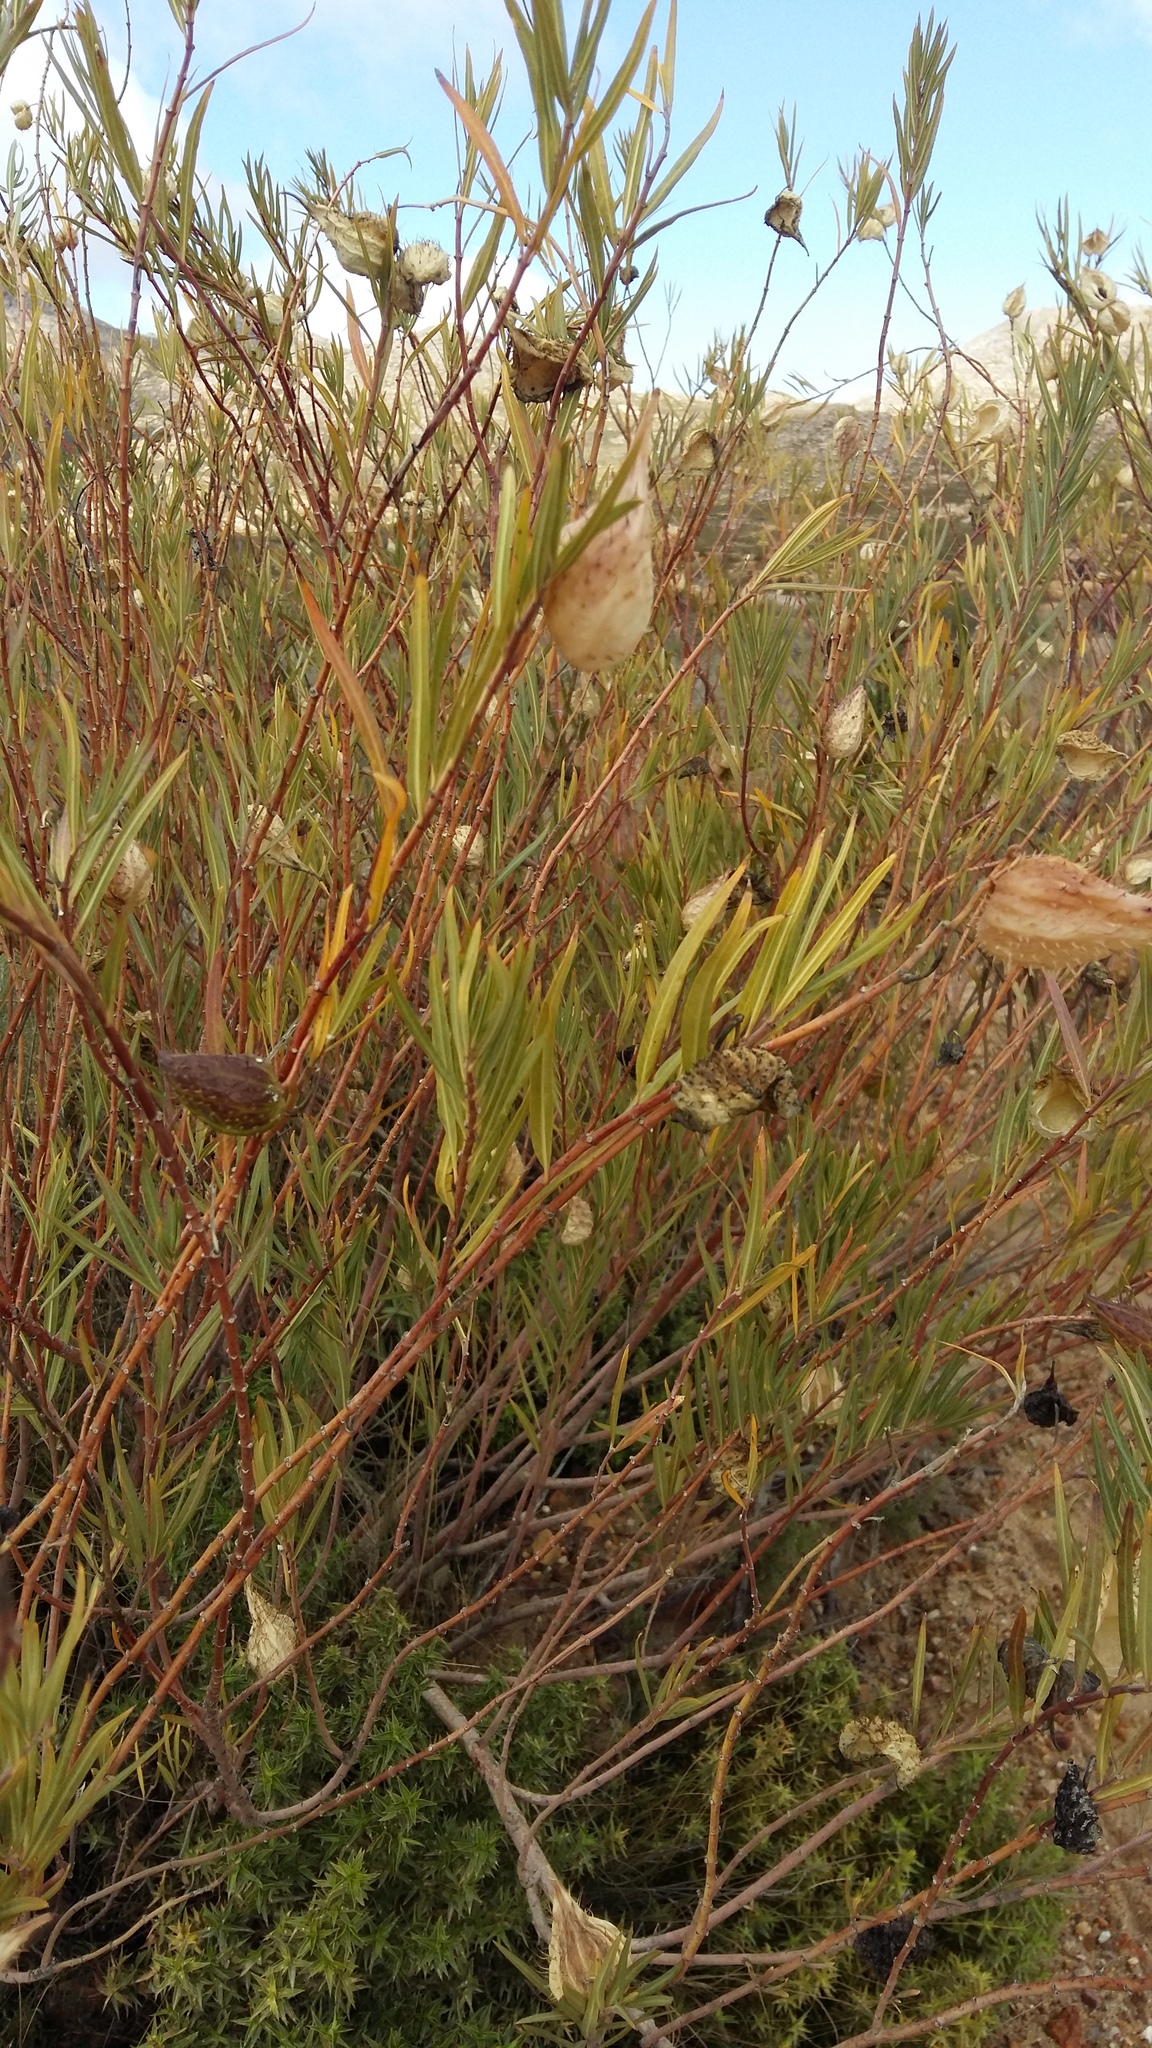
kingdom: Plantae
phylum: Tracheophyta
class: Magnoliopsida
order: Gentianales
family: Apocynaceae
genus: Gomphocarpus
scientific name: Gomphocarpus fruticosus
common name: Milkweed
